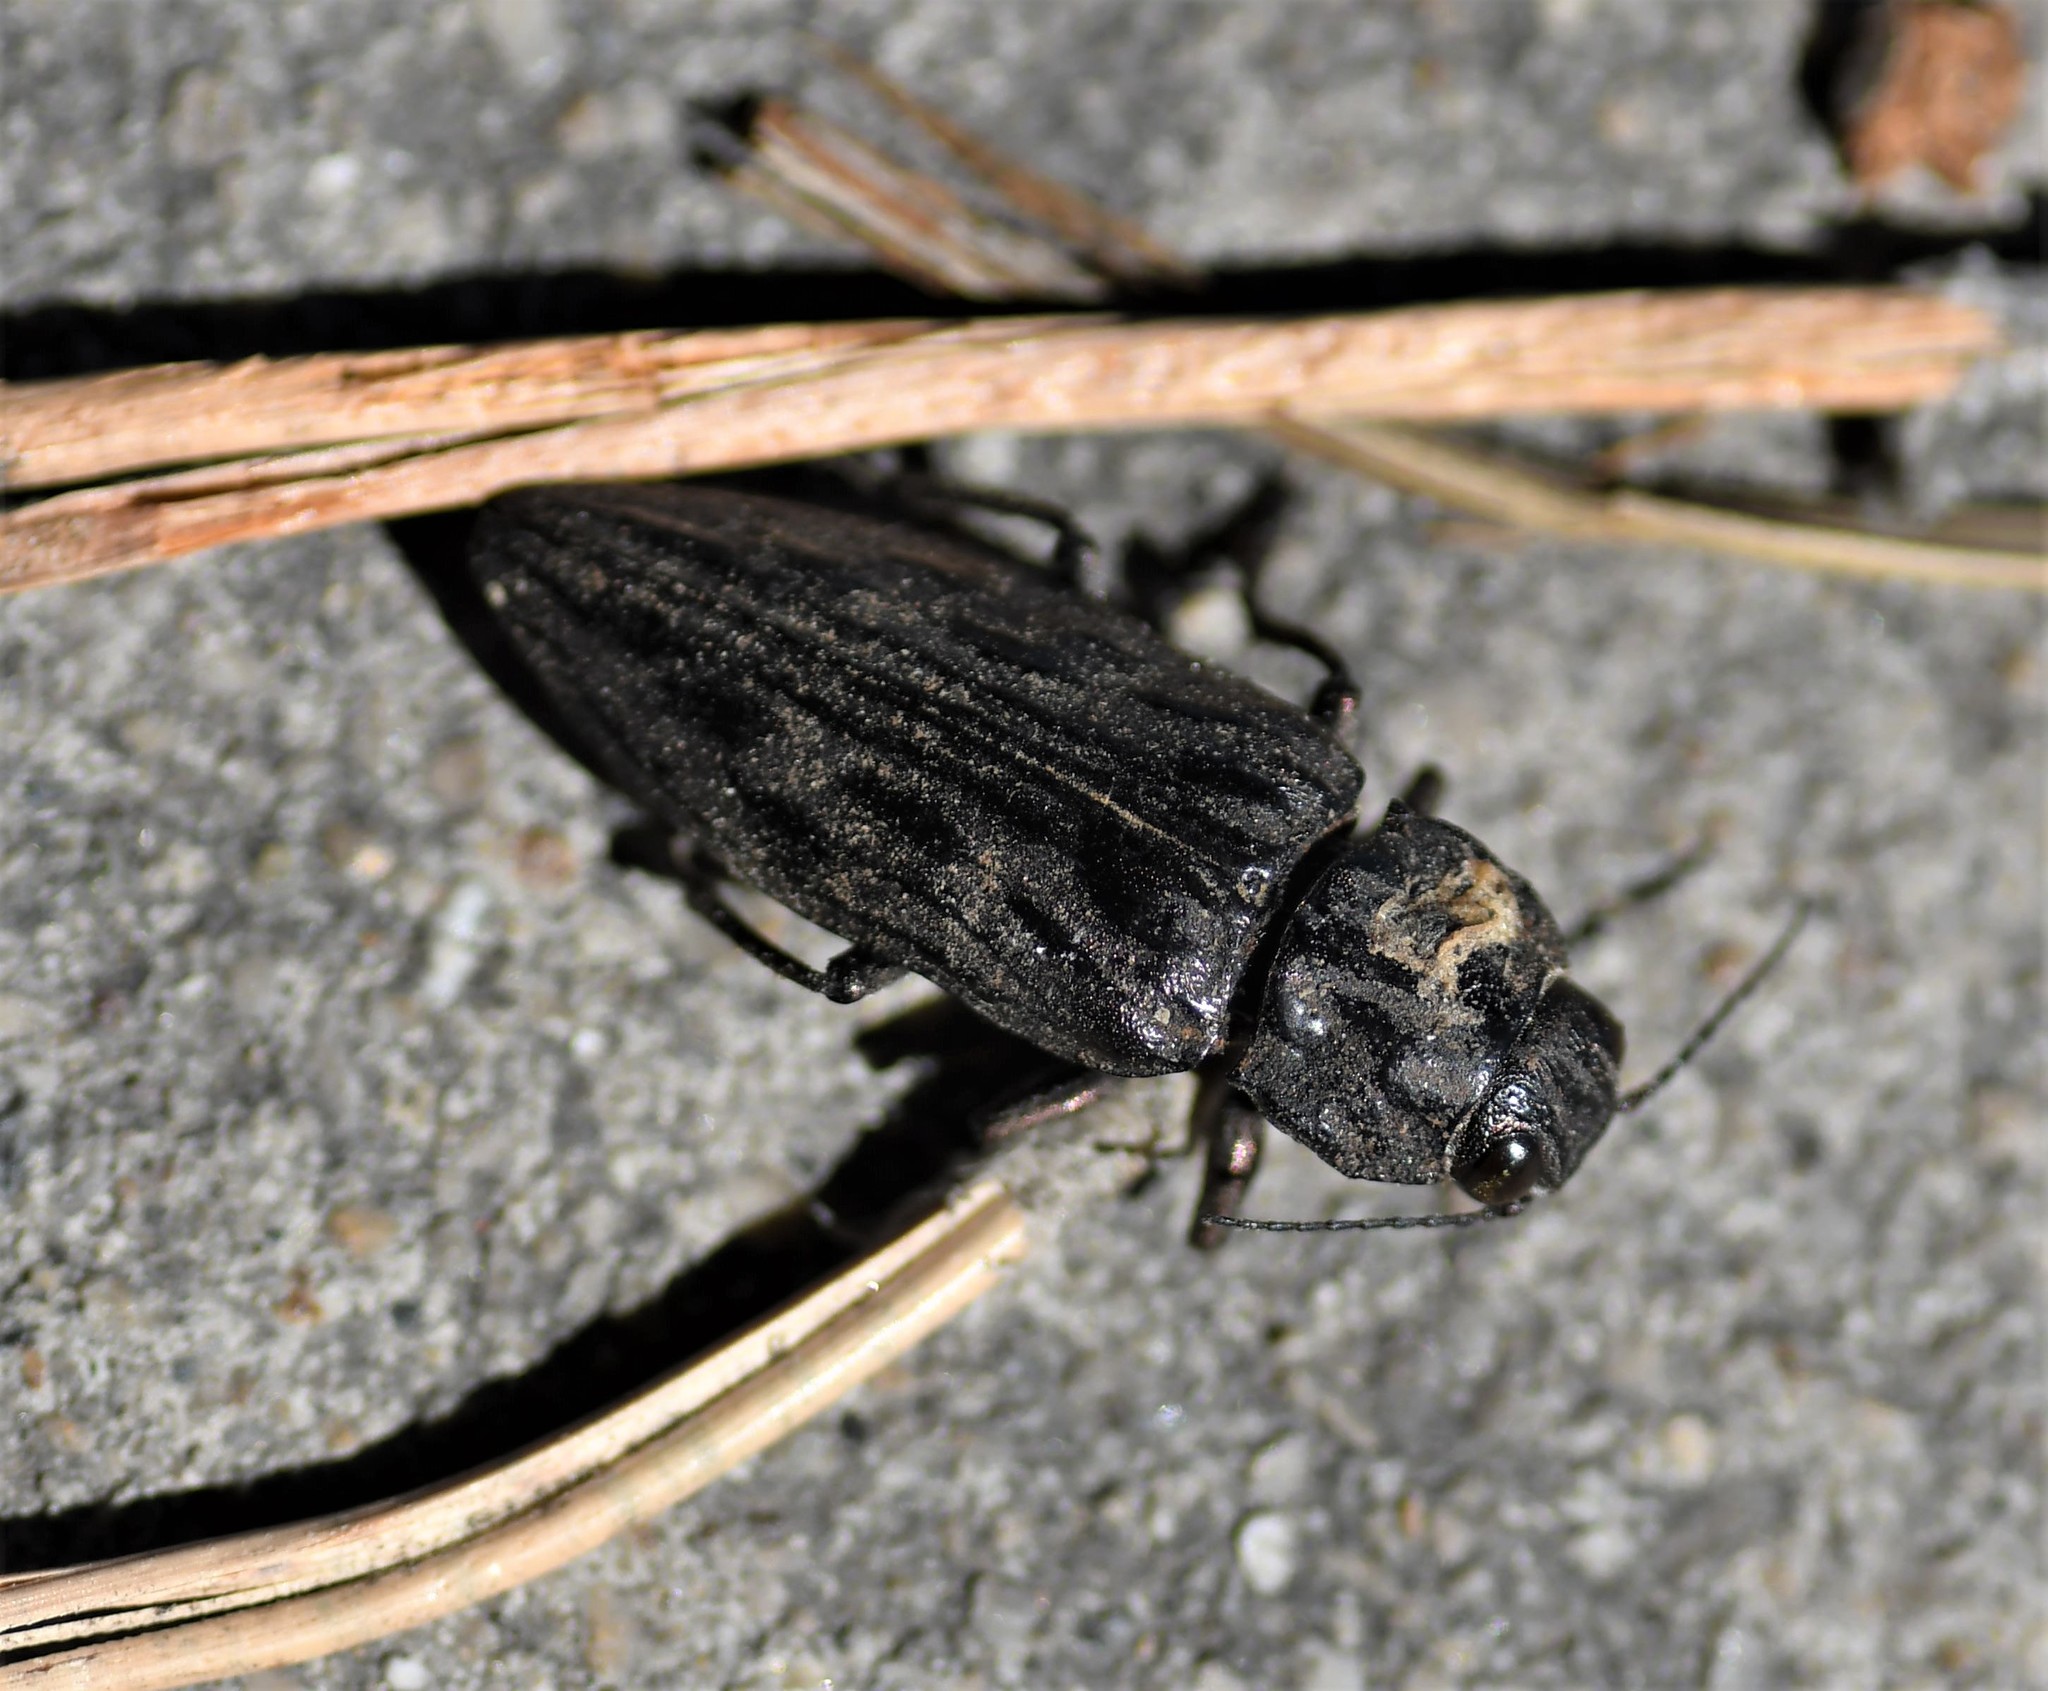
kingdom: Animalia
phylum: Arthropoda
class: Insecta
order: Coleoptera
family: Buprestidae
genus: Chalcophora
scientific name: Chalcophora angulicollis
